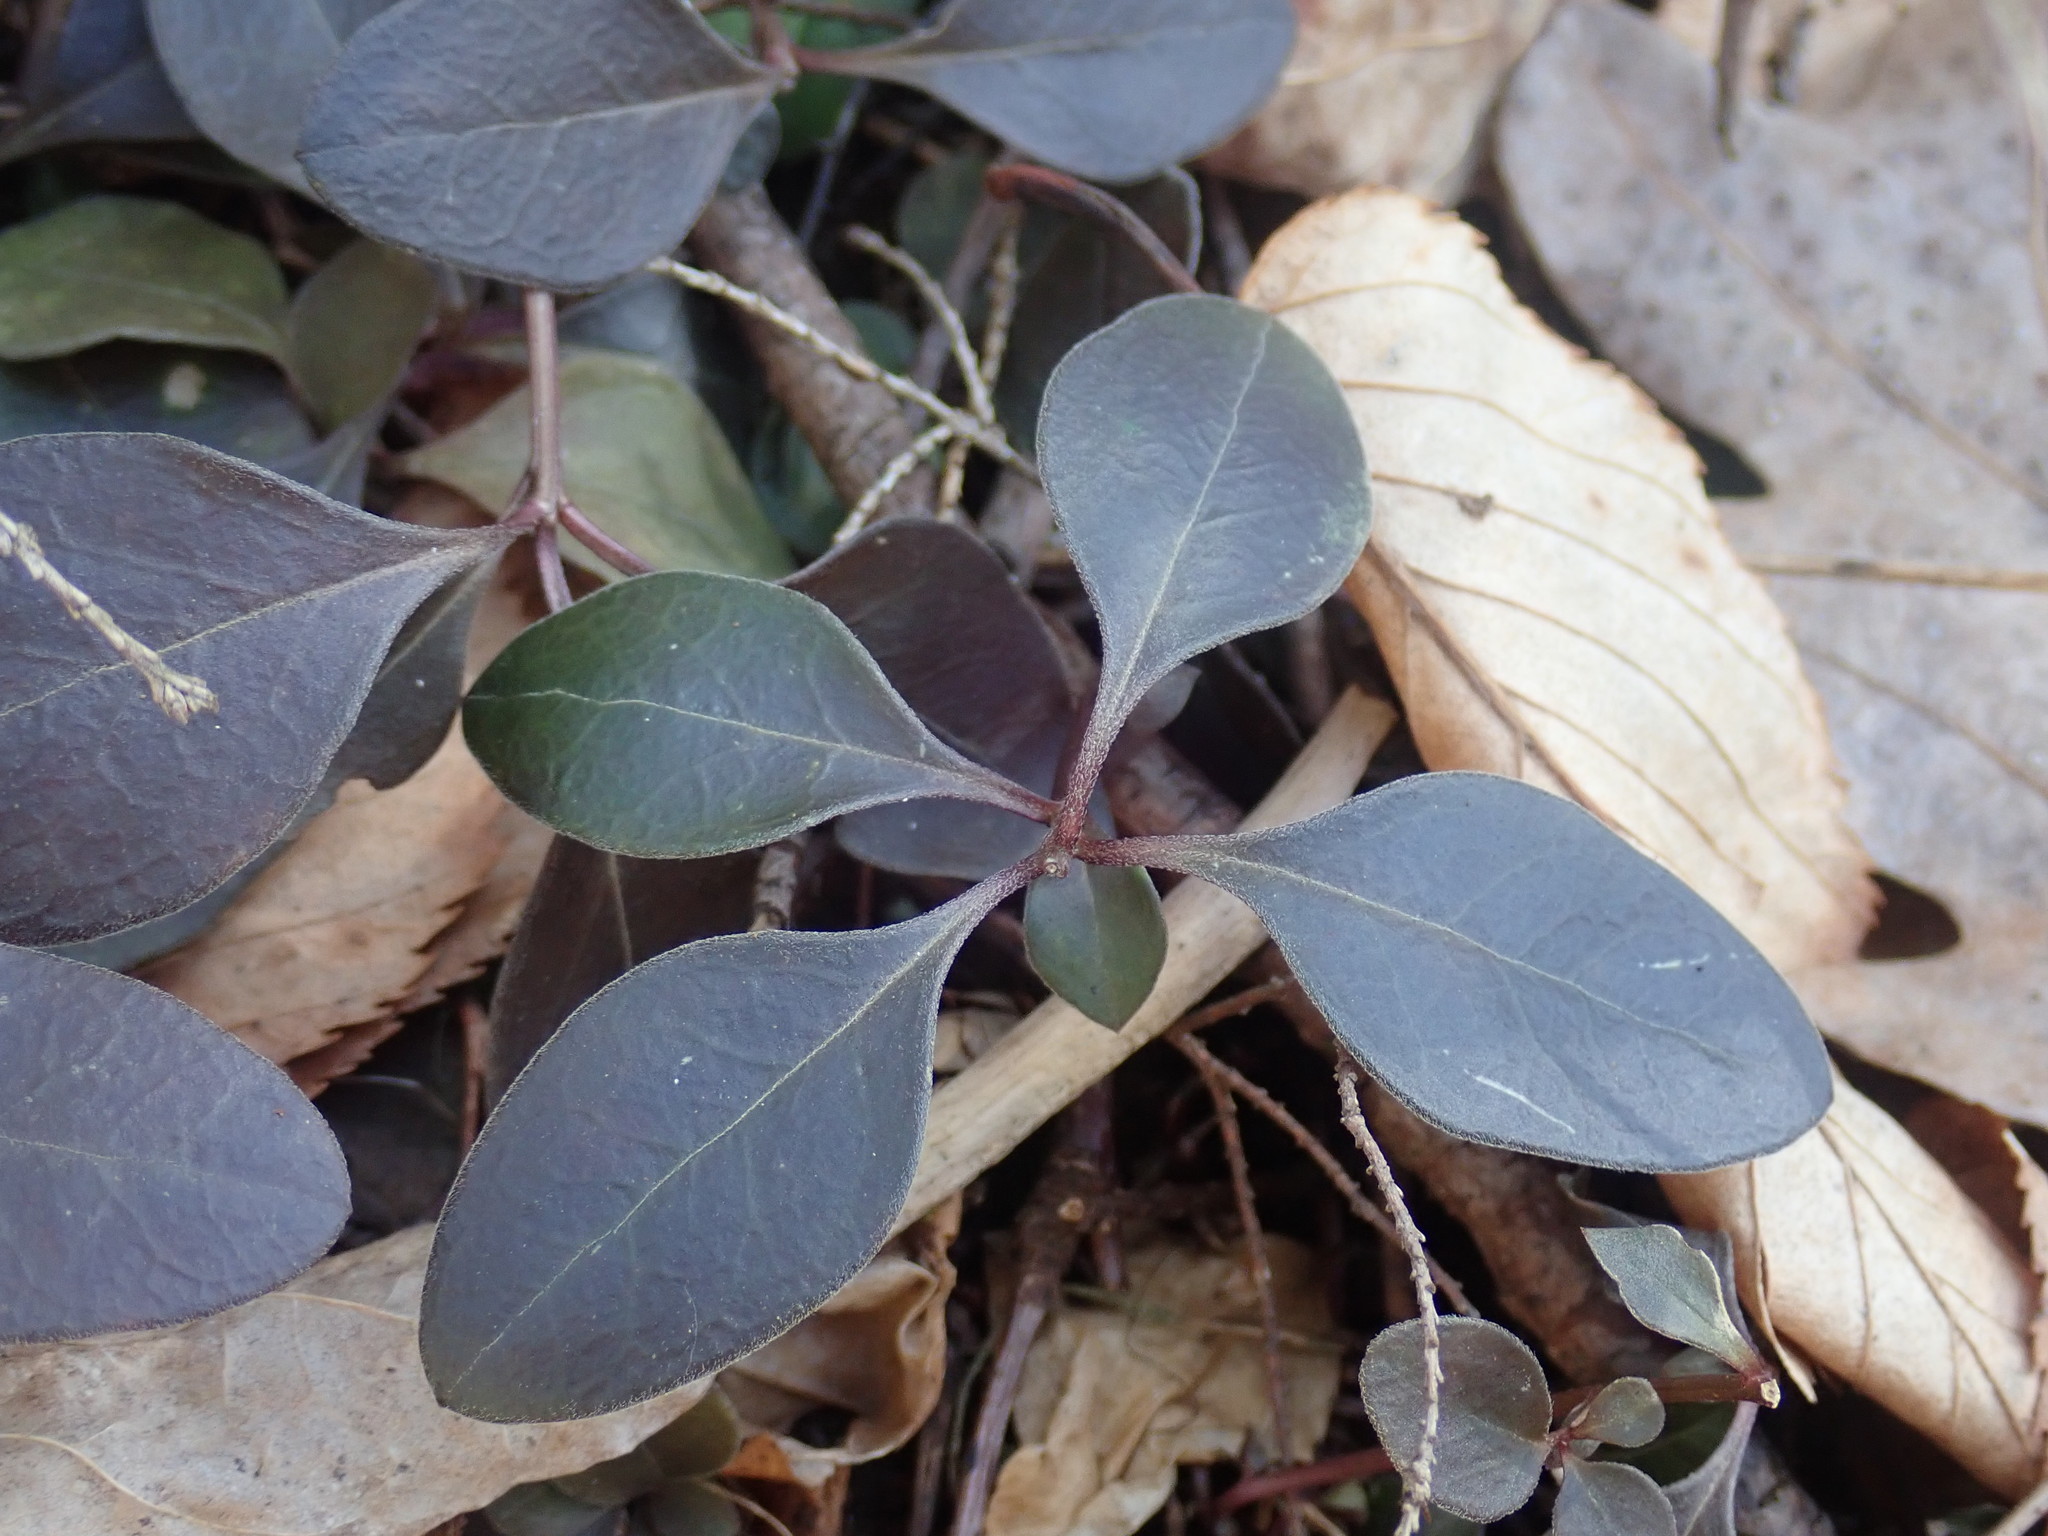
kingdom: Plantae
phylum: Tracheophyta
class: Magnoliopsida
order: Fabales
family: Polygalaceae
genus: Polygaloides
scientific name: Polygaloides paucifolia
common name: Bird-on-the-wing
